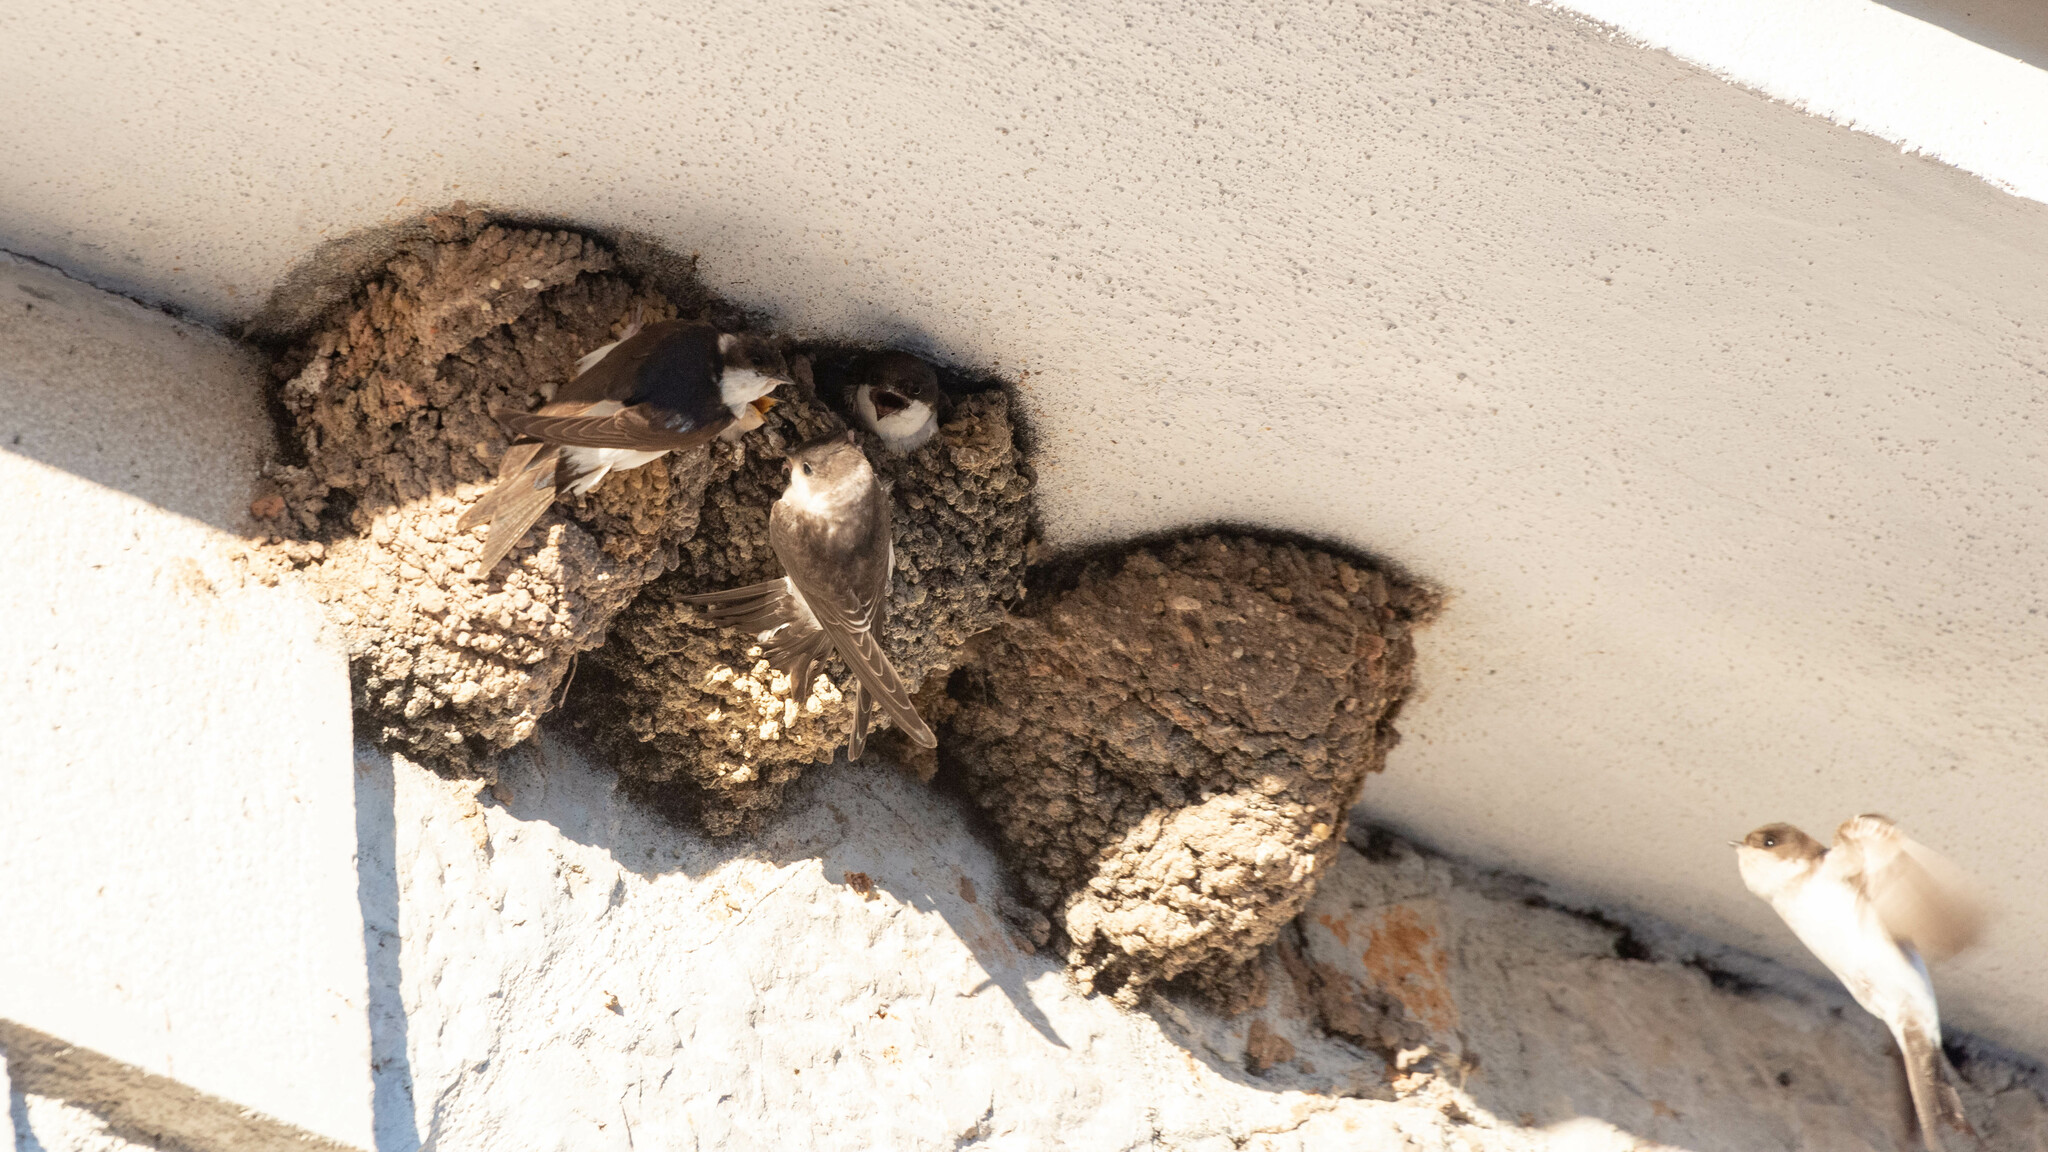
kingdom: Animalia
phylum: Chordata
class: Aves
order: Passeriformes
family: Hirundinidae
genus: Delichon
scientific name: Delichon urbicum
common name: Common house martin
